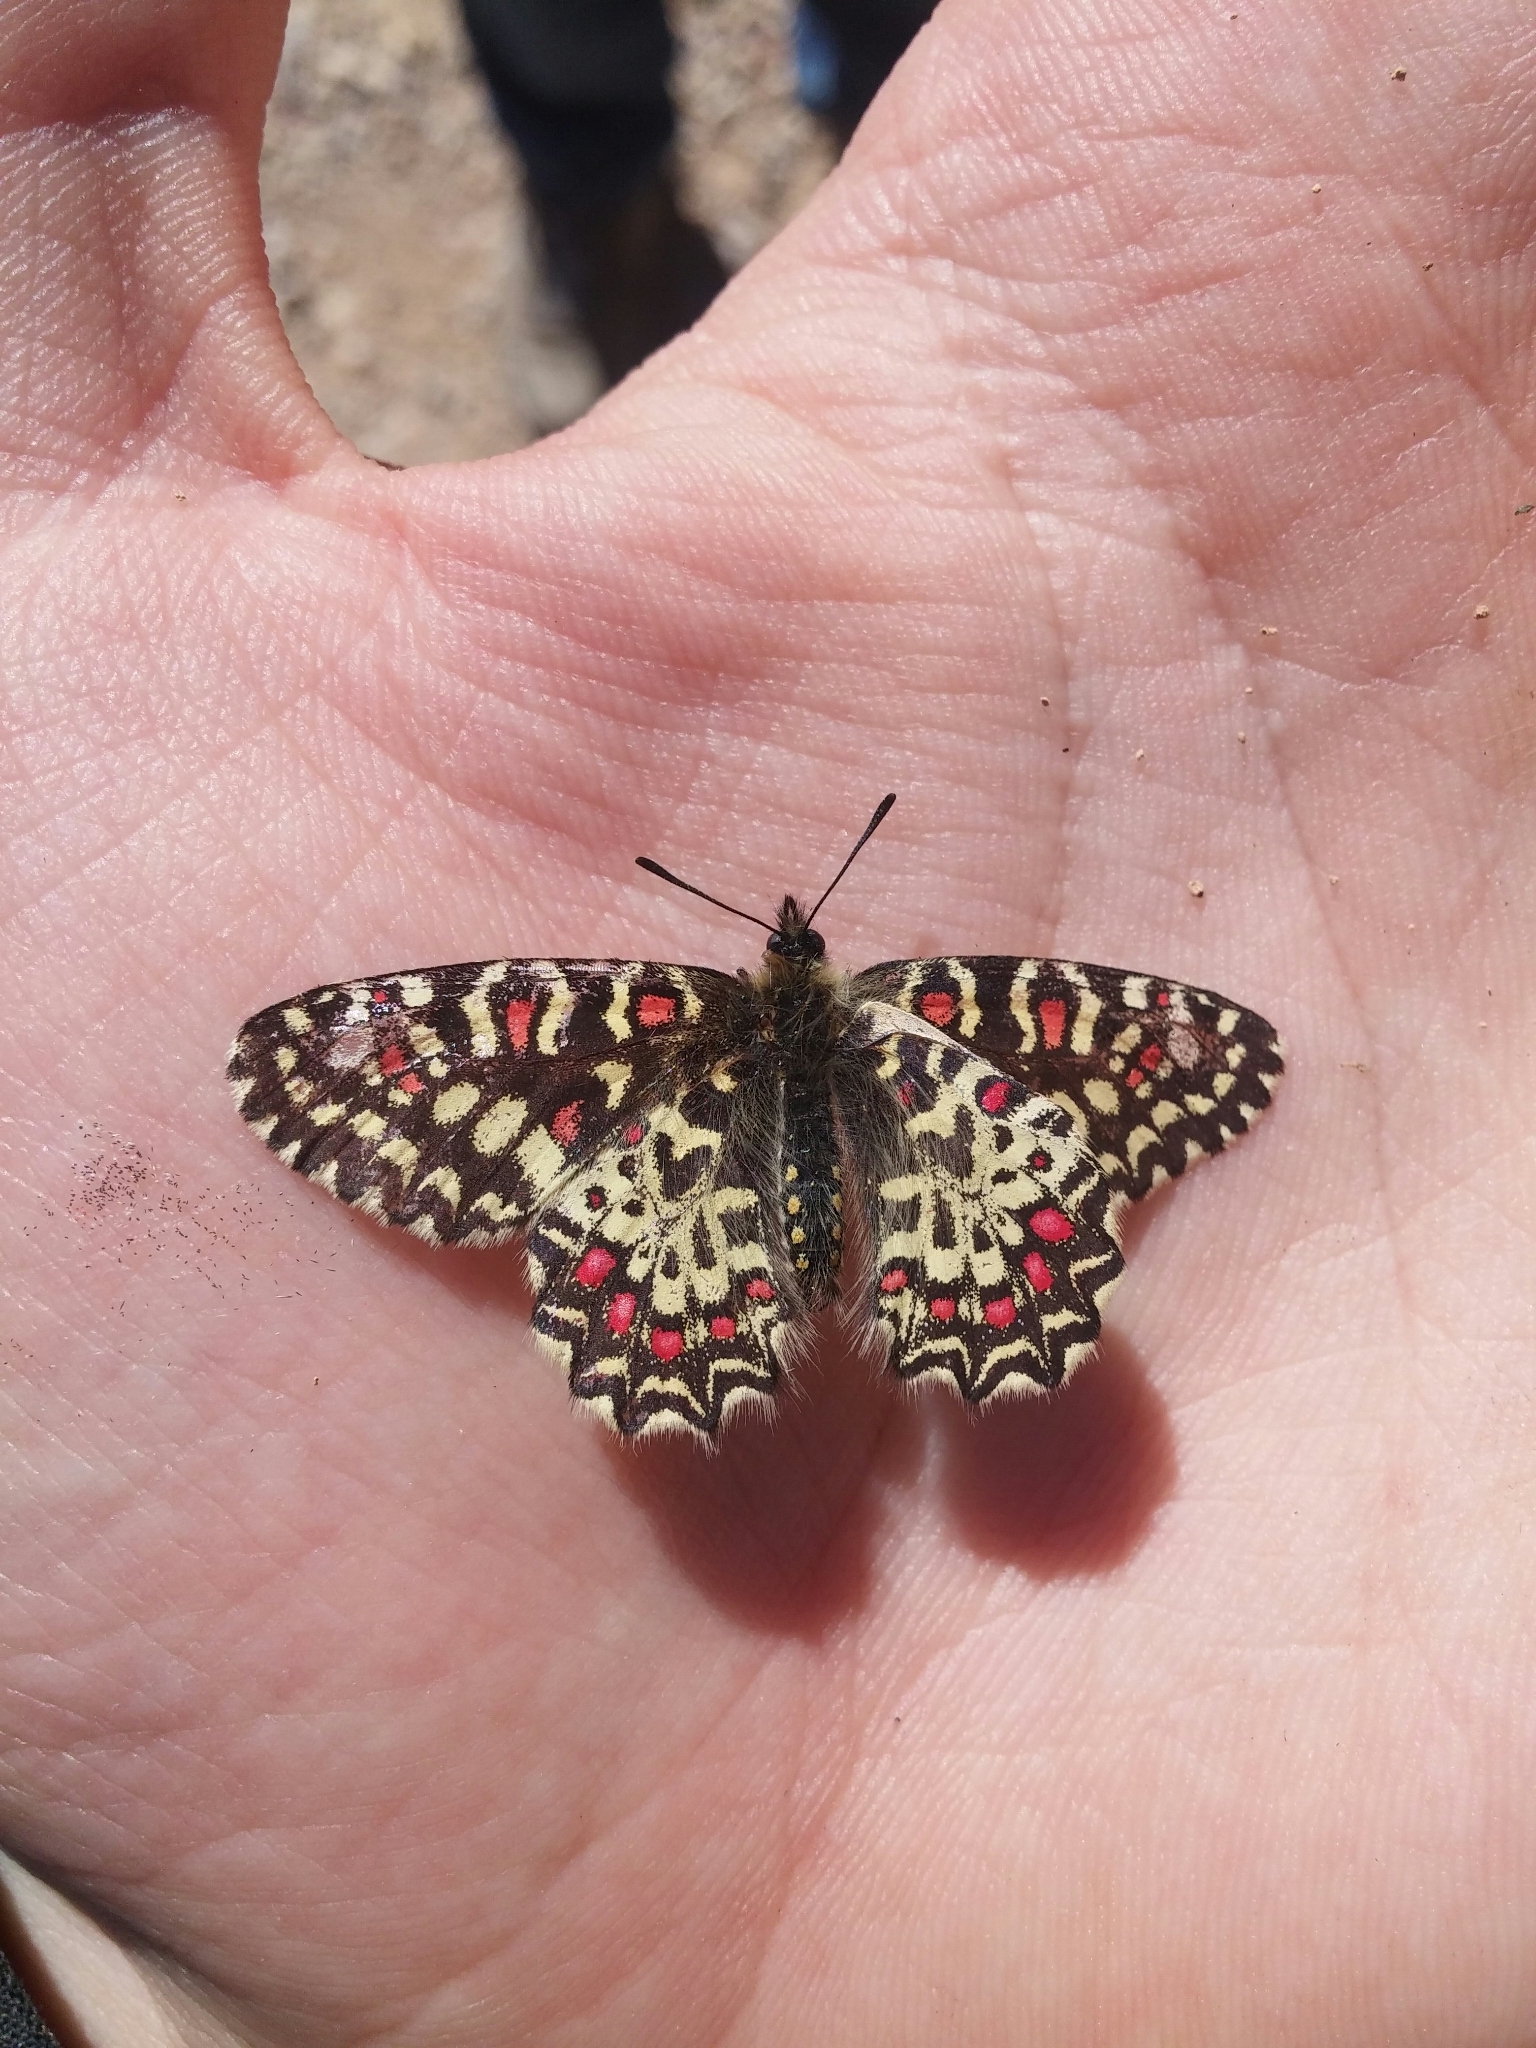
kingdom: Animalia
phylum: Arthropoda
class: Insecta
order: Lepidoptera
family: Papilionidae
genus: Zerynthia
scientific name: Zerynthia rumina
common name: Spanish festoon
